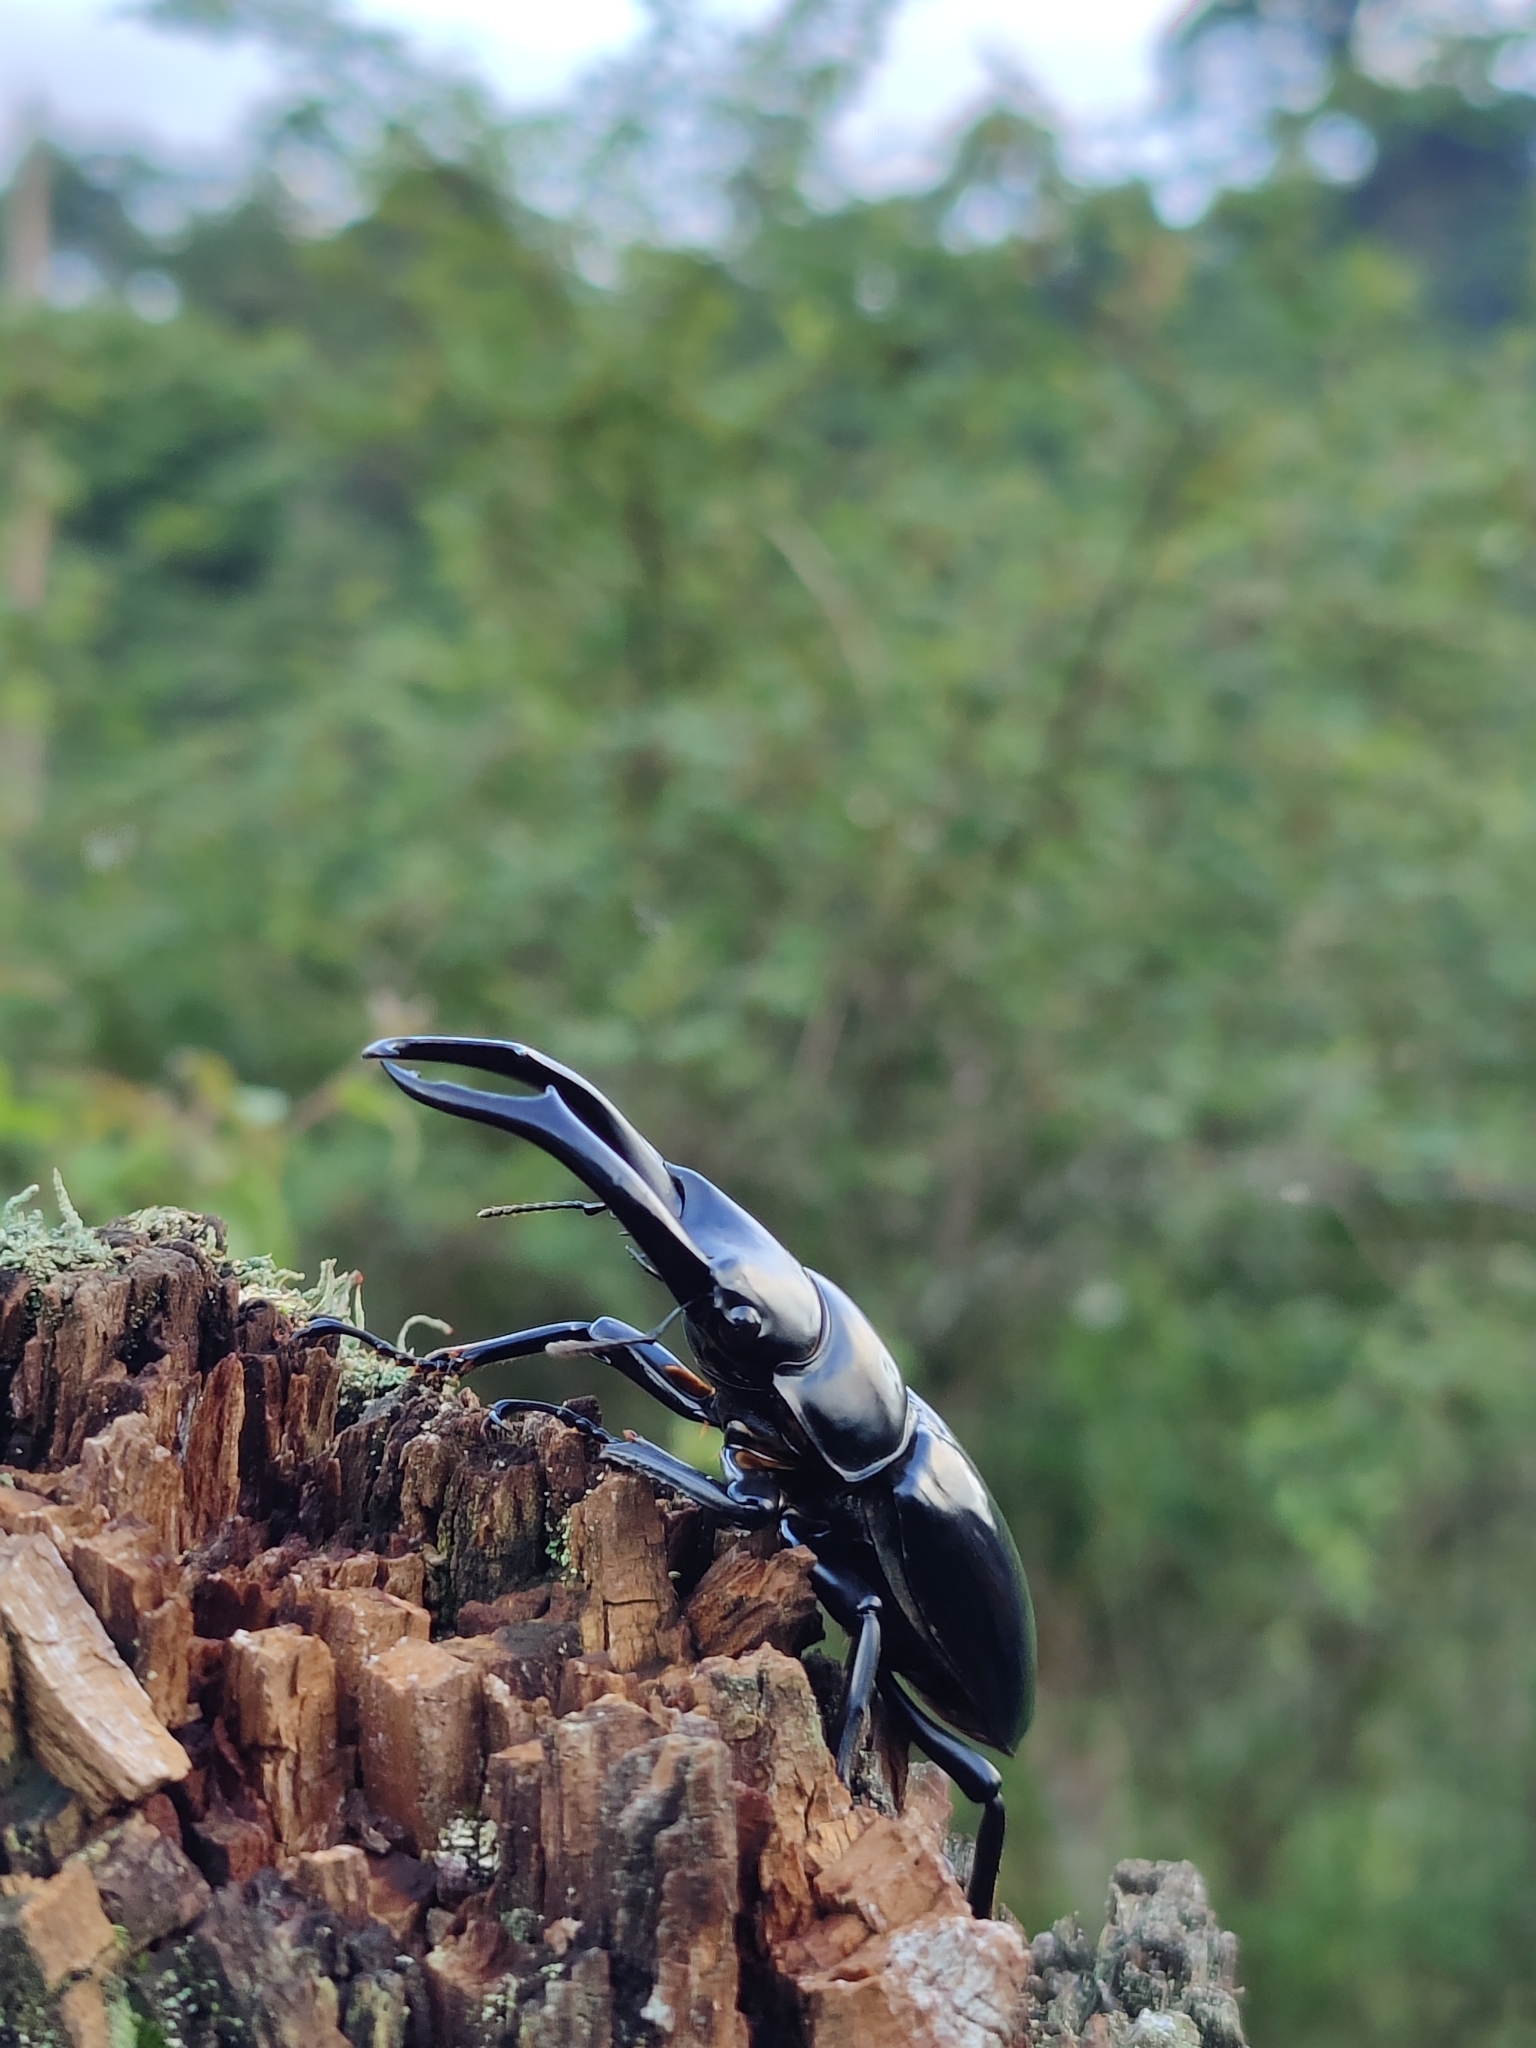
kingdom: Animalia
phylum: Arthropoda
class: Insecta
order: Coleoptera
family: Lucanidae
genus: Dorcus
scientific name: Dorcus nepalensis
